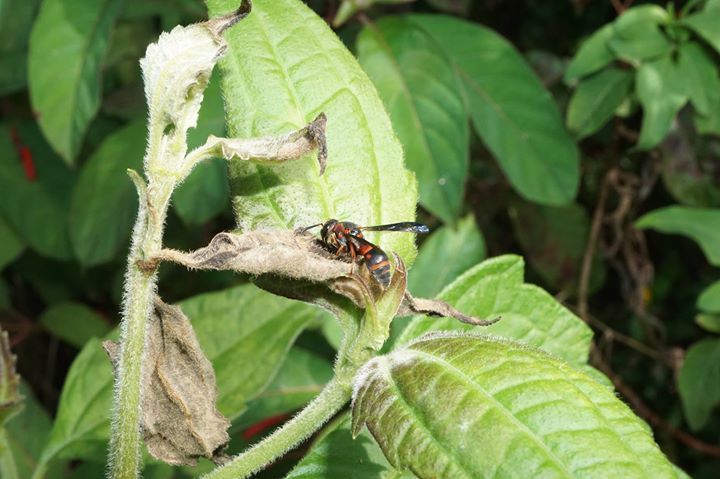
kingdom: Animalia
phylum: Arthropoda
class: Insecta
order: Hymenoptera
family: Eumenidae
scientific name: Eumenidae
